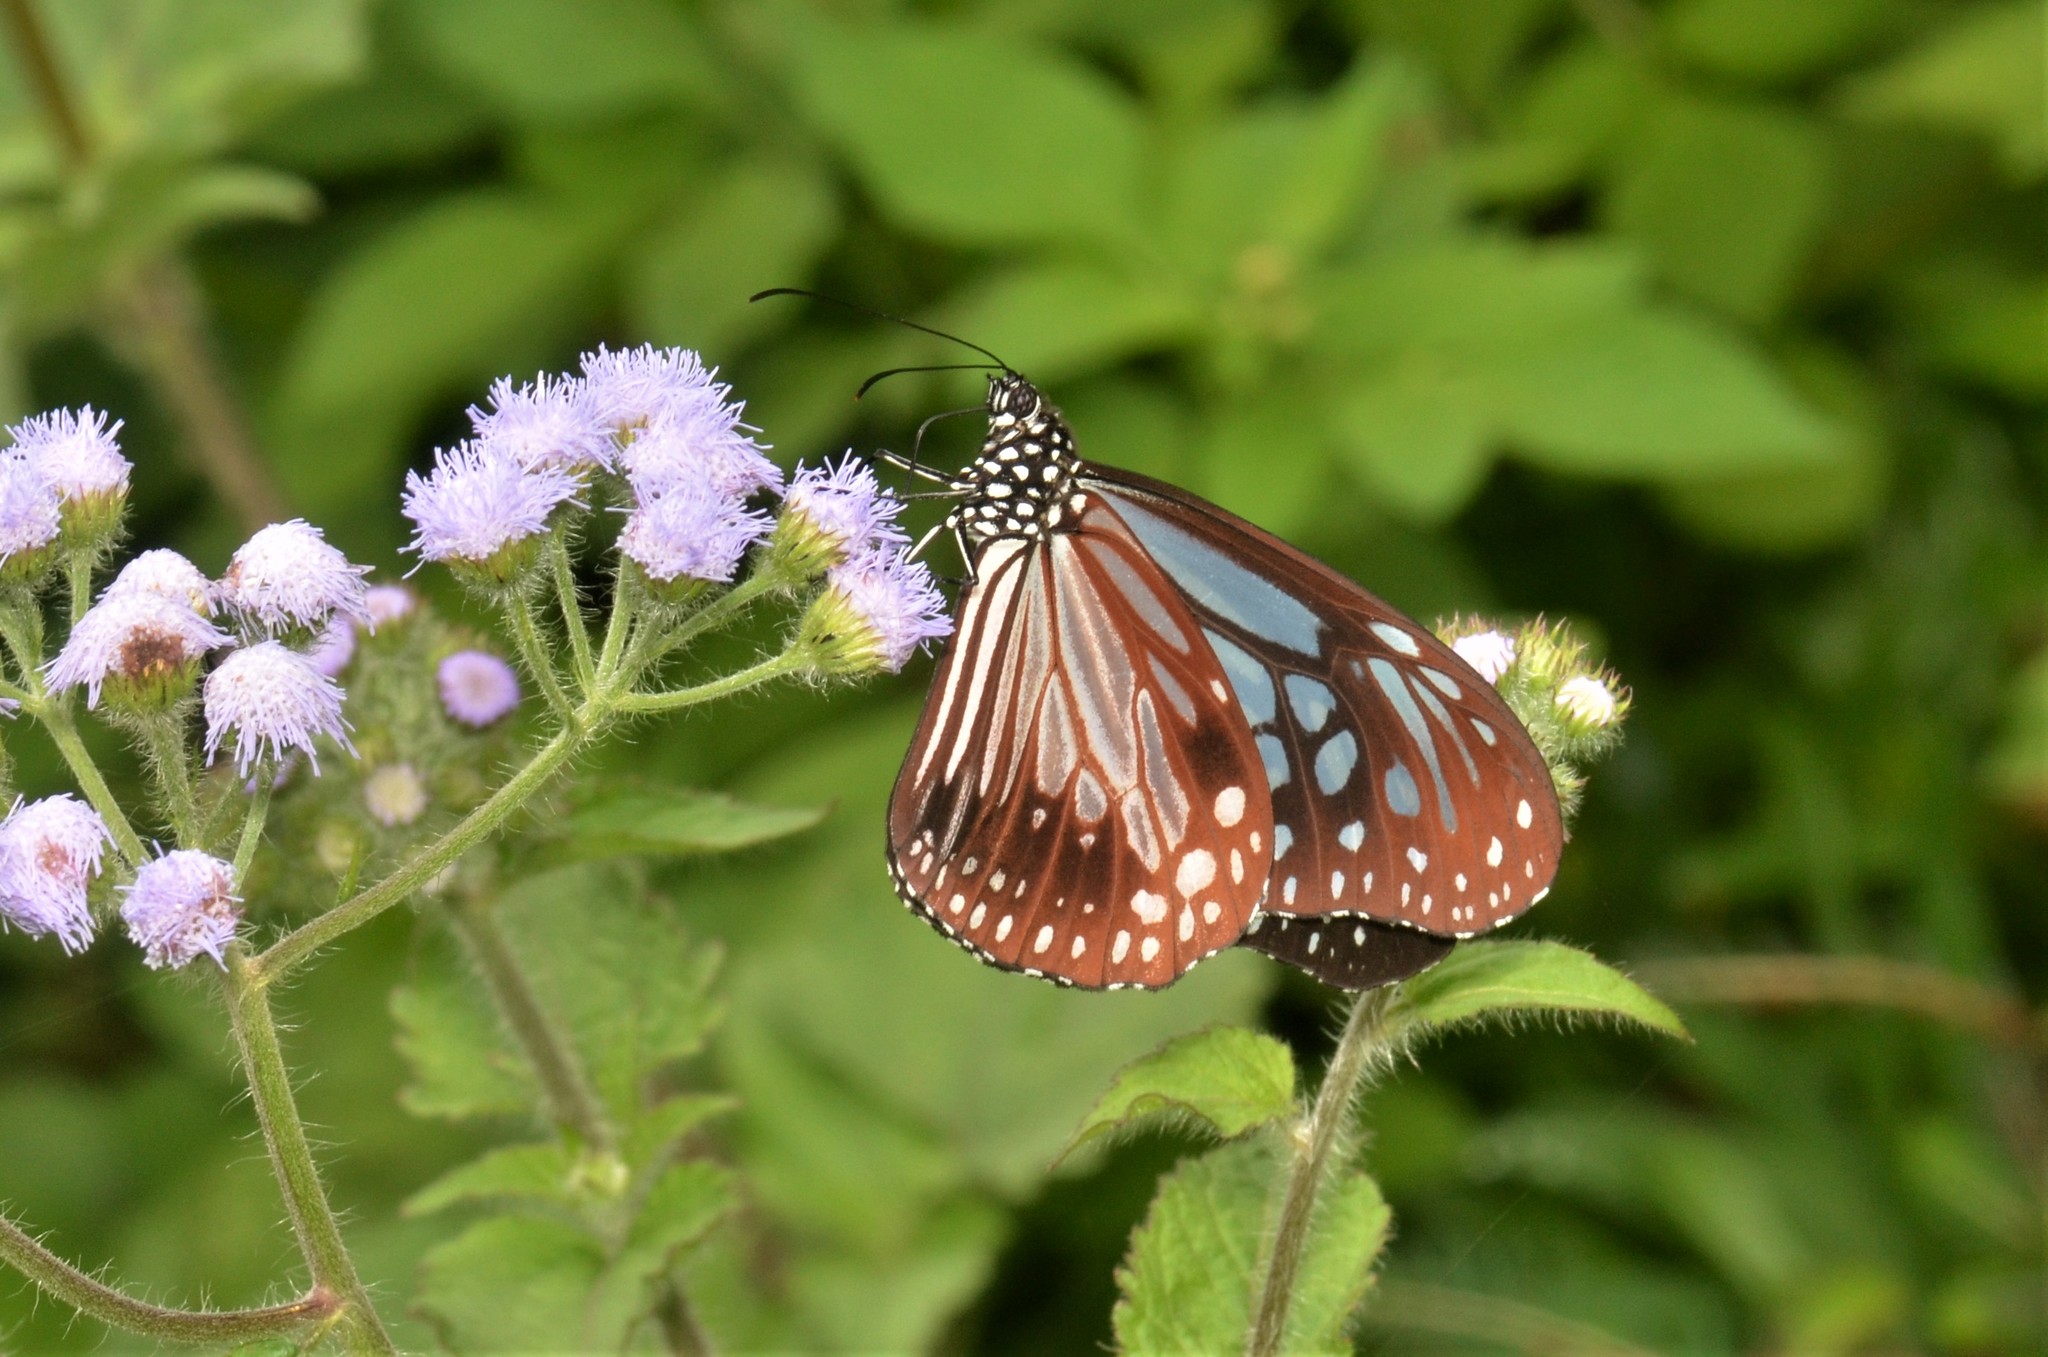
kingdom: Animalia
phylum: Arthropoda
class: Insecta
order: Lepidoptera
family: Nymphalidae
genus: Parantica
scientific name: Parantica melaneus
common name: Chocolate tiger
